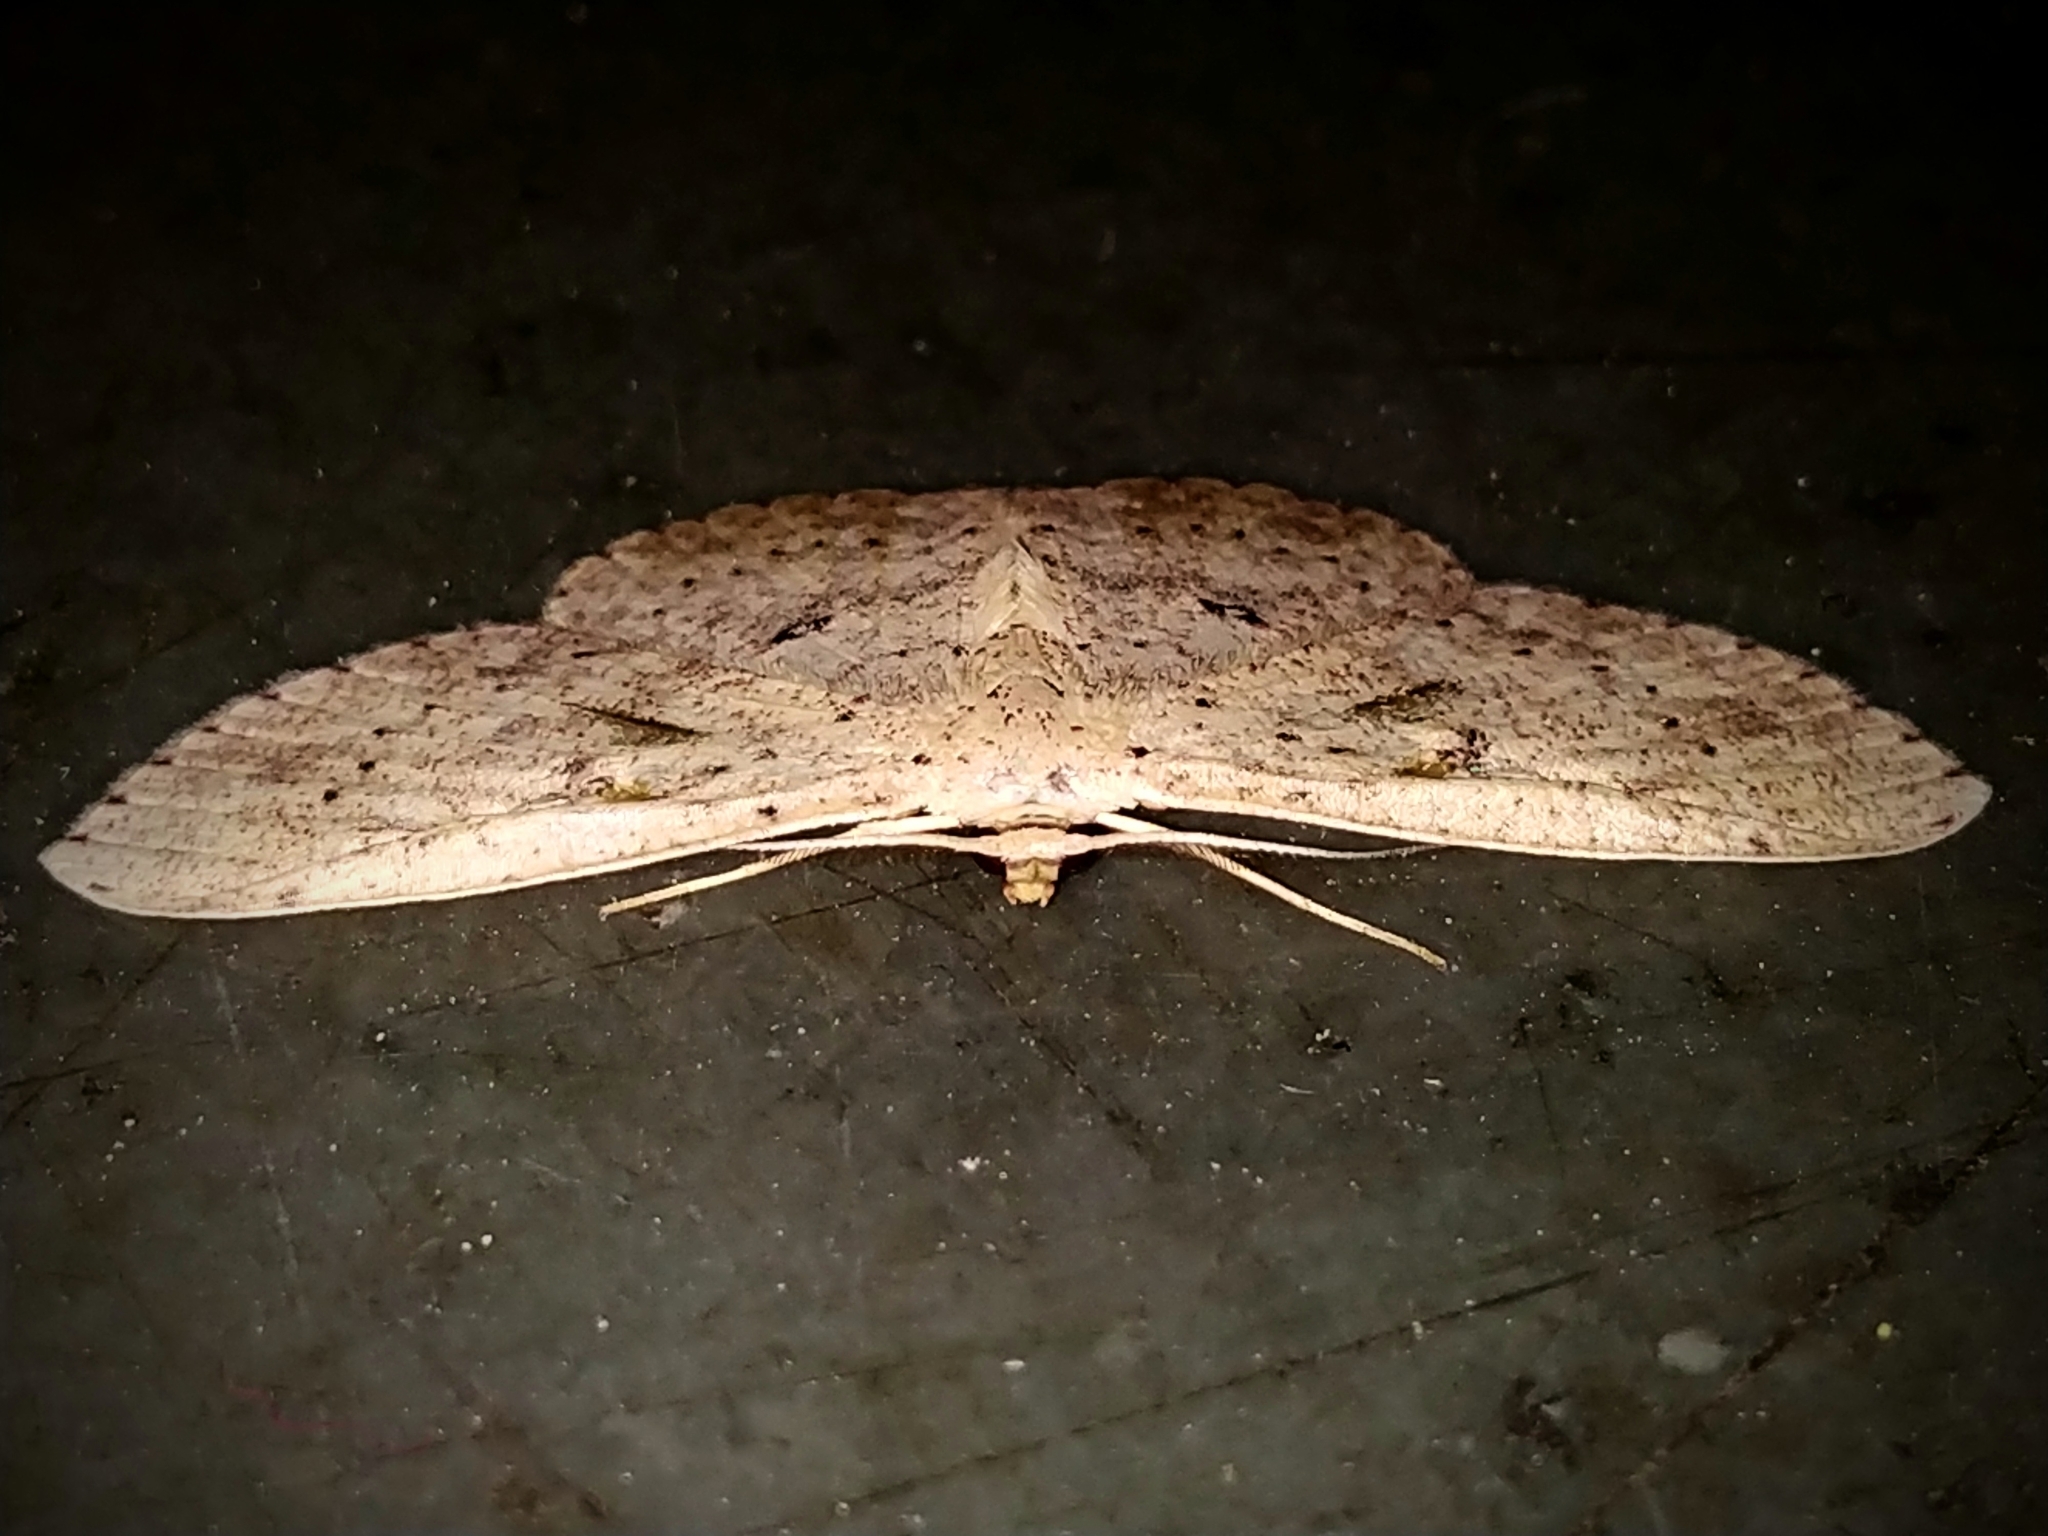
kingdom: Animalia
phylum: Arthropoda
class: Insecta
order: Lepidoptera
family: Geometridae
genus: Perixera
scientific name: Perixera illepidaria
